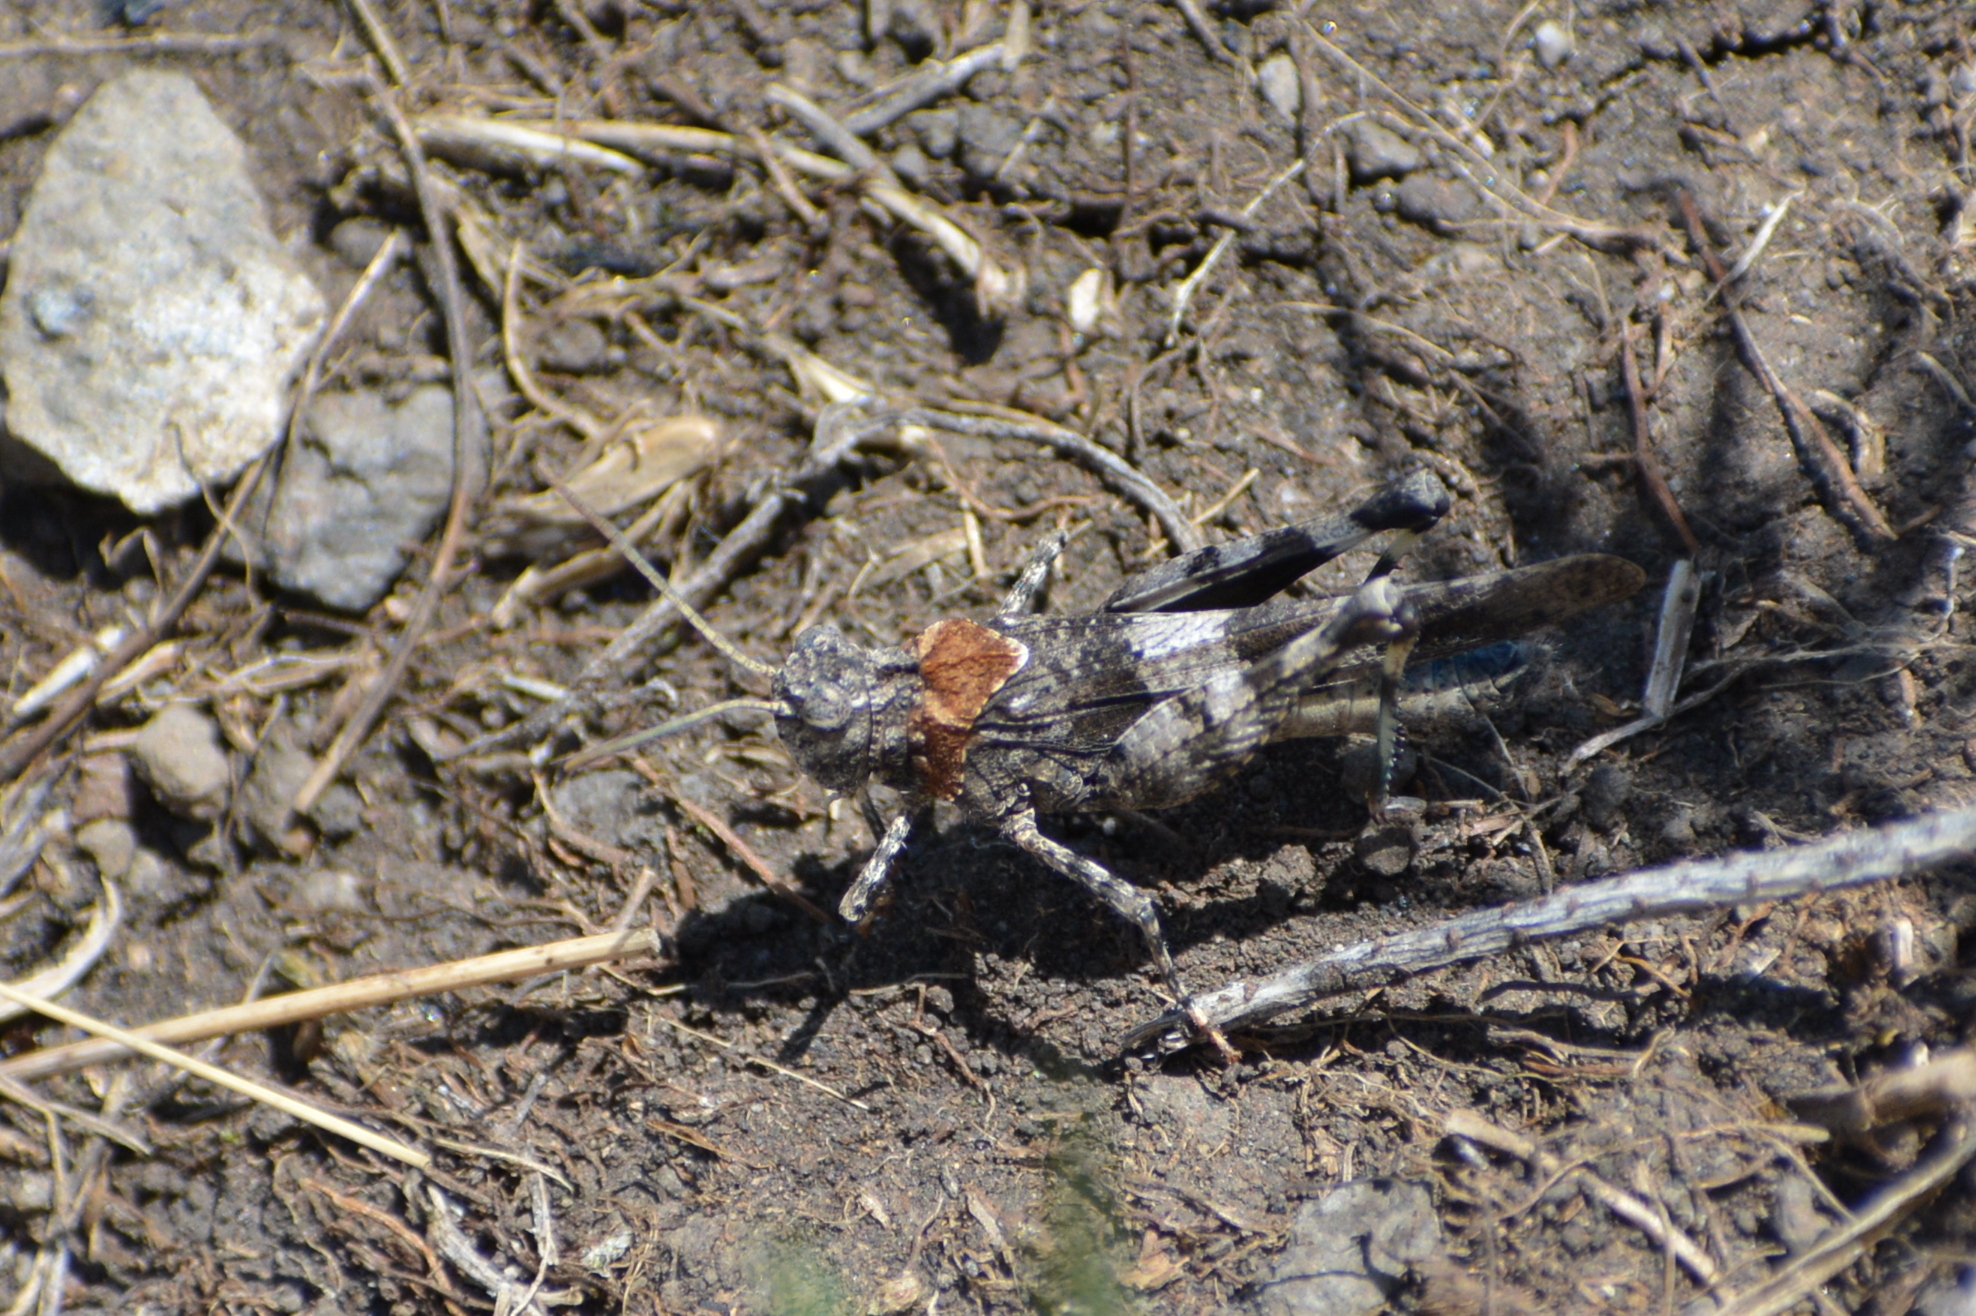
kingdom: Animalia
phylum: Arthropoda
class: Insecta
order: Orthoptera
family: Acrididae
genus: Oedipoda
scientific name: Oedipoda caerulescens
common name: Blue-winged grasshopper
